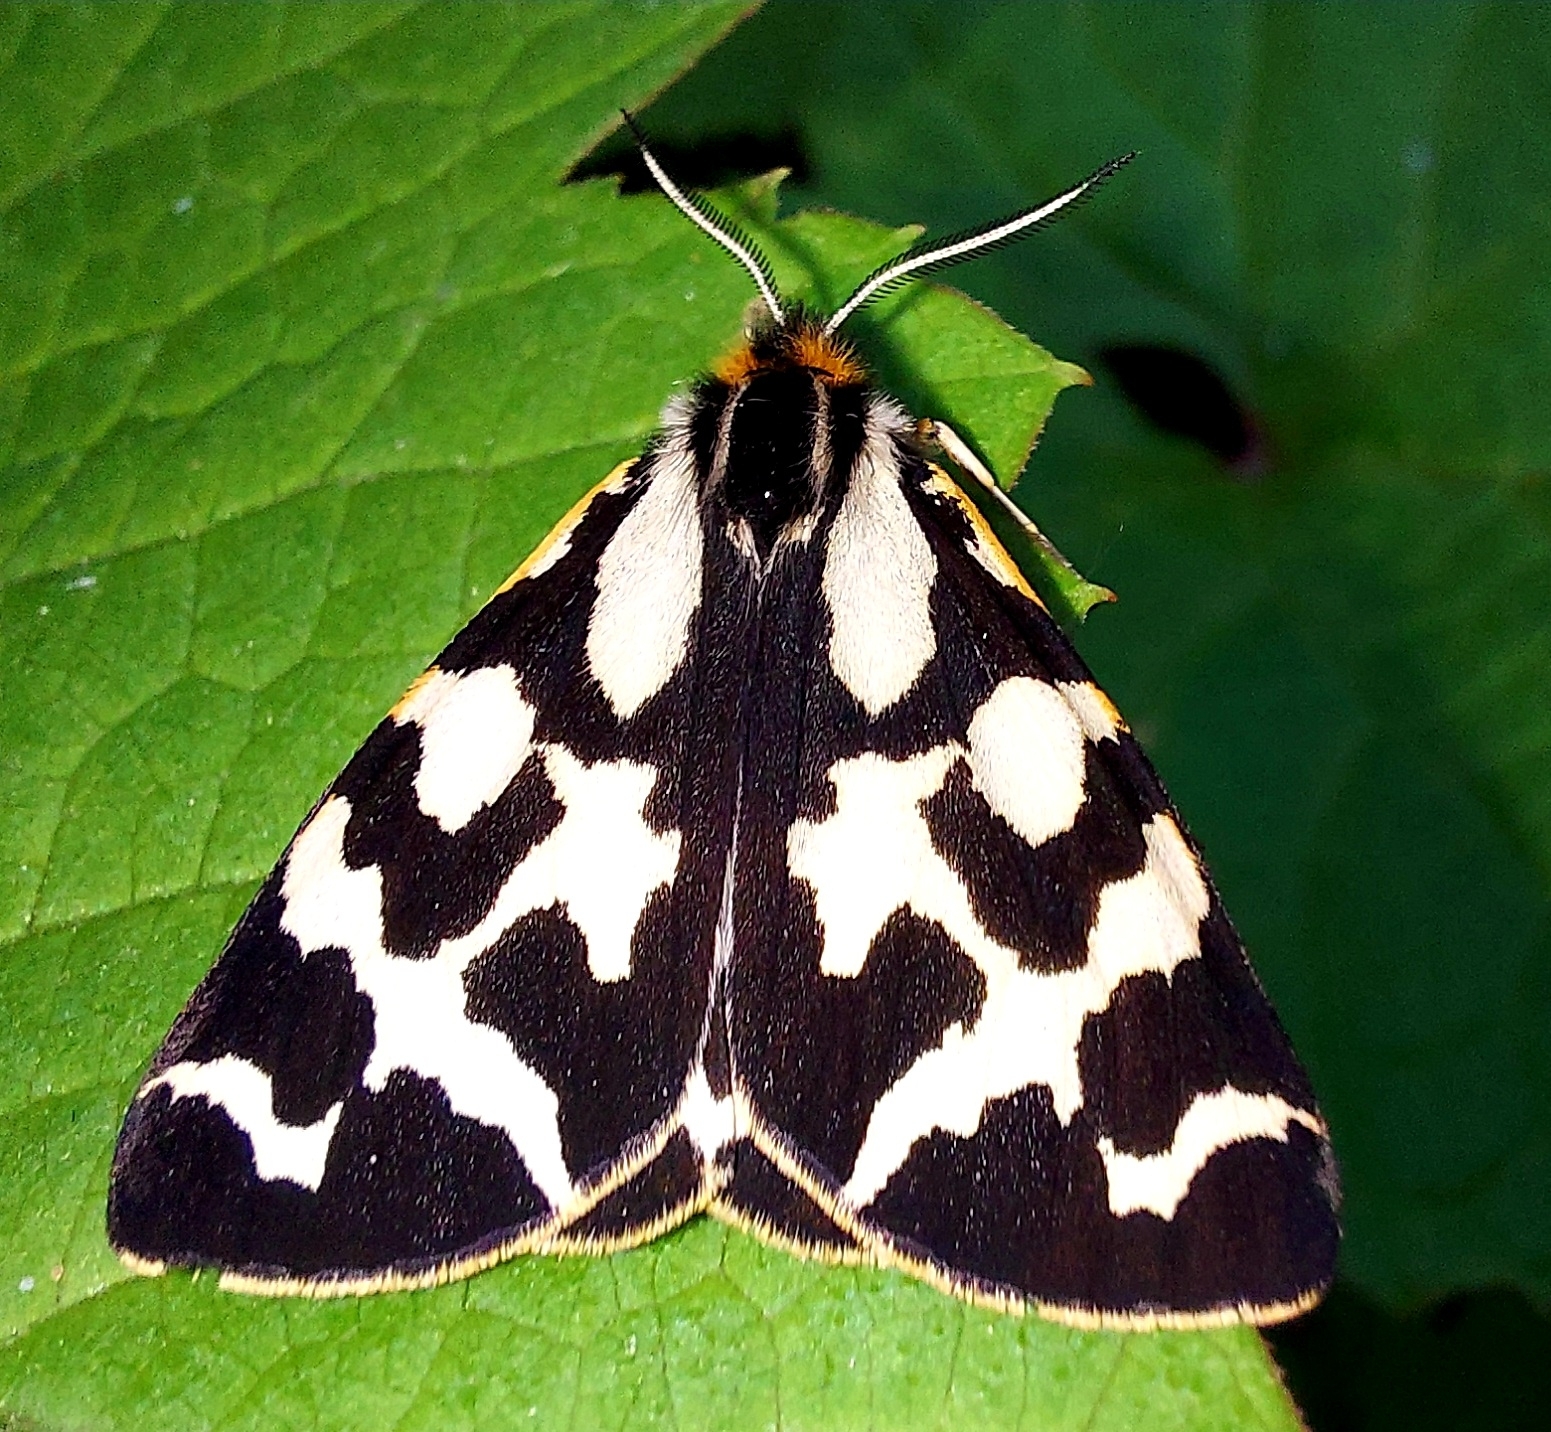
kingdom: Animalia
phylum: Arthropoda
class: Insecta
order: Lepidoptera
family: Erebidae
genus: Parasemia
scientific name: Parasemia plantaginis
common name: Wood tiger
